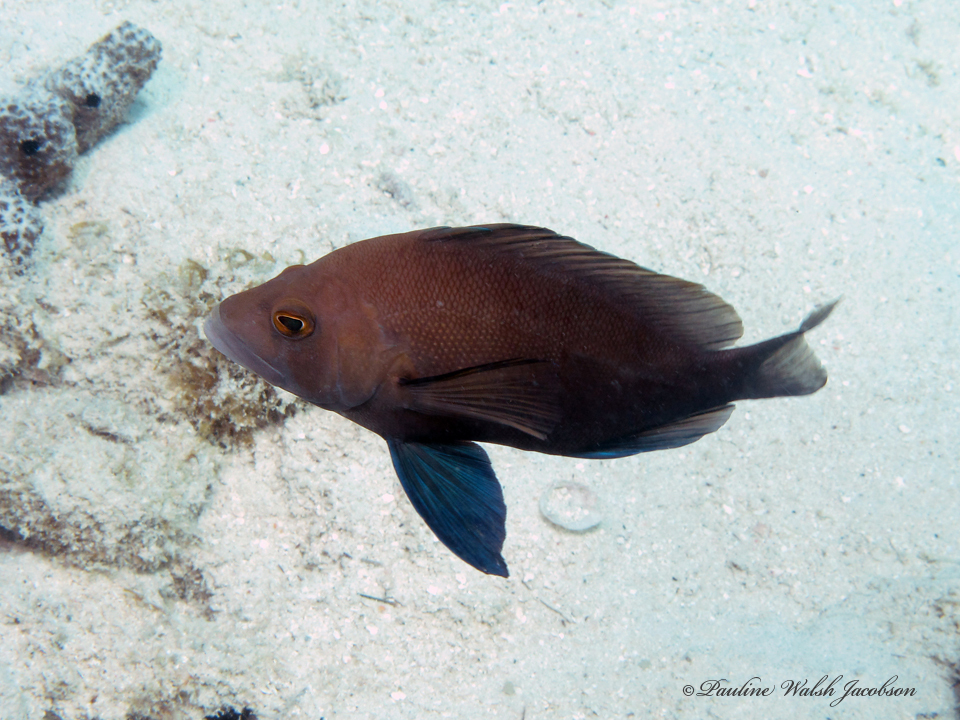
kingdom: Animalia
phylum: Chordata
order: Perciformes
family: Serranidae
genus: Hypoplectrus
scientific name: Hypoplectrus nigricans
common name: Black hamlet
